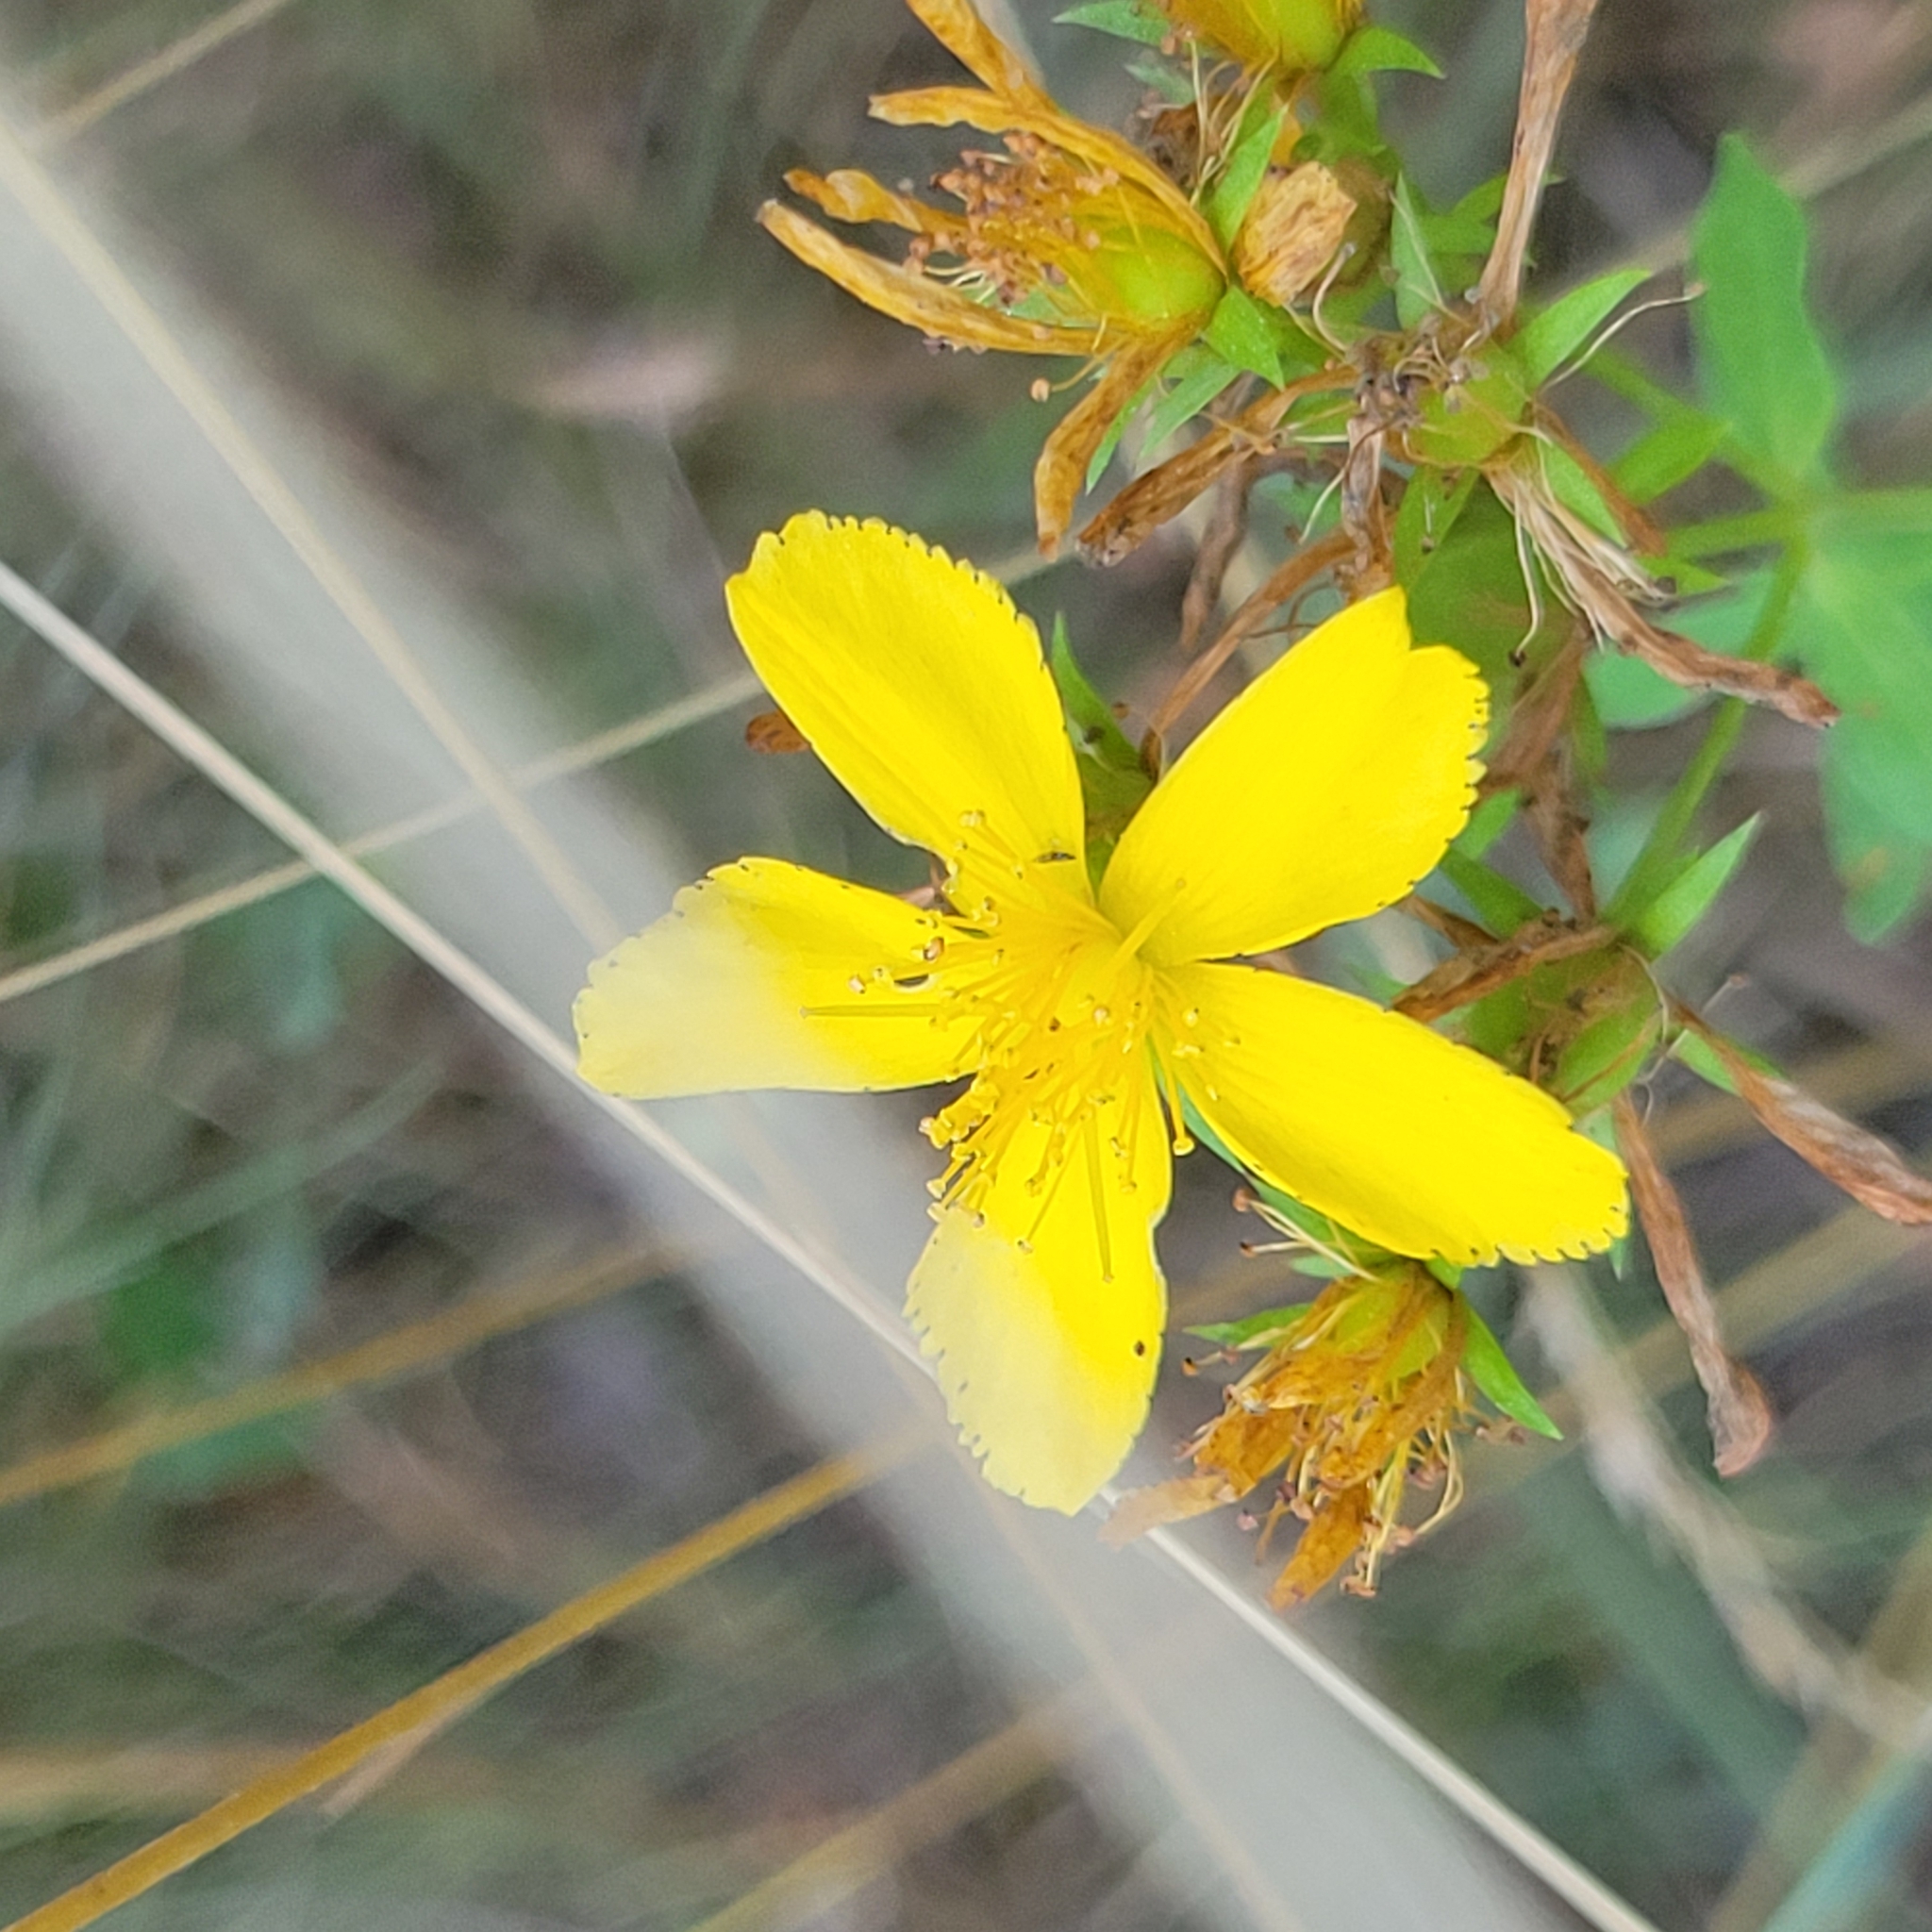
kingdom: Plantae
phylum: Tracheophyta
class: Magnoliopsida
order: Malpighiales
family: Hypericaceae
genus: Hypericum
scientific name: Hypericum perforatum
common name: Common st. johnswort
